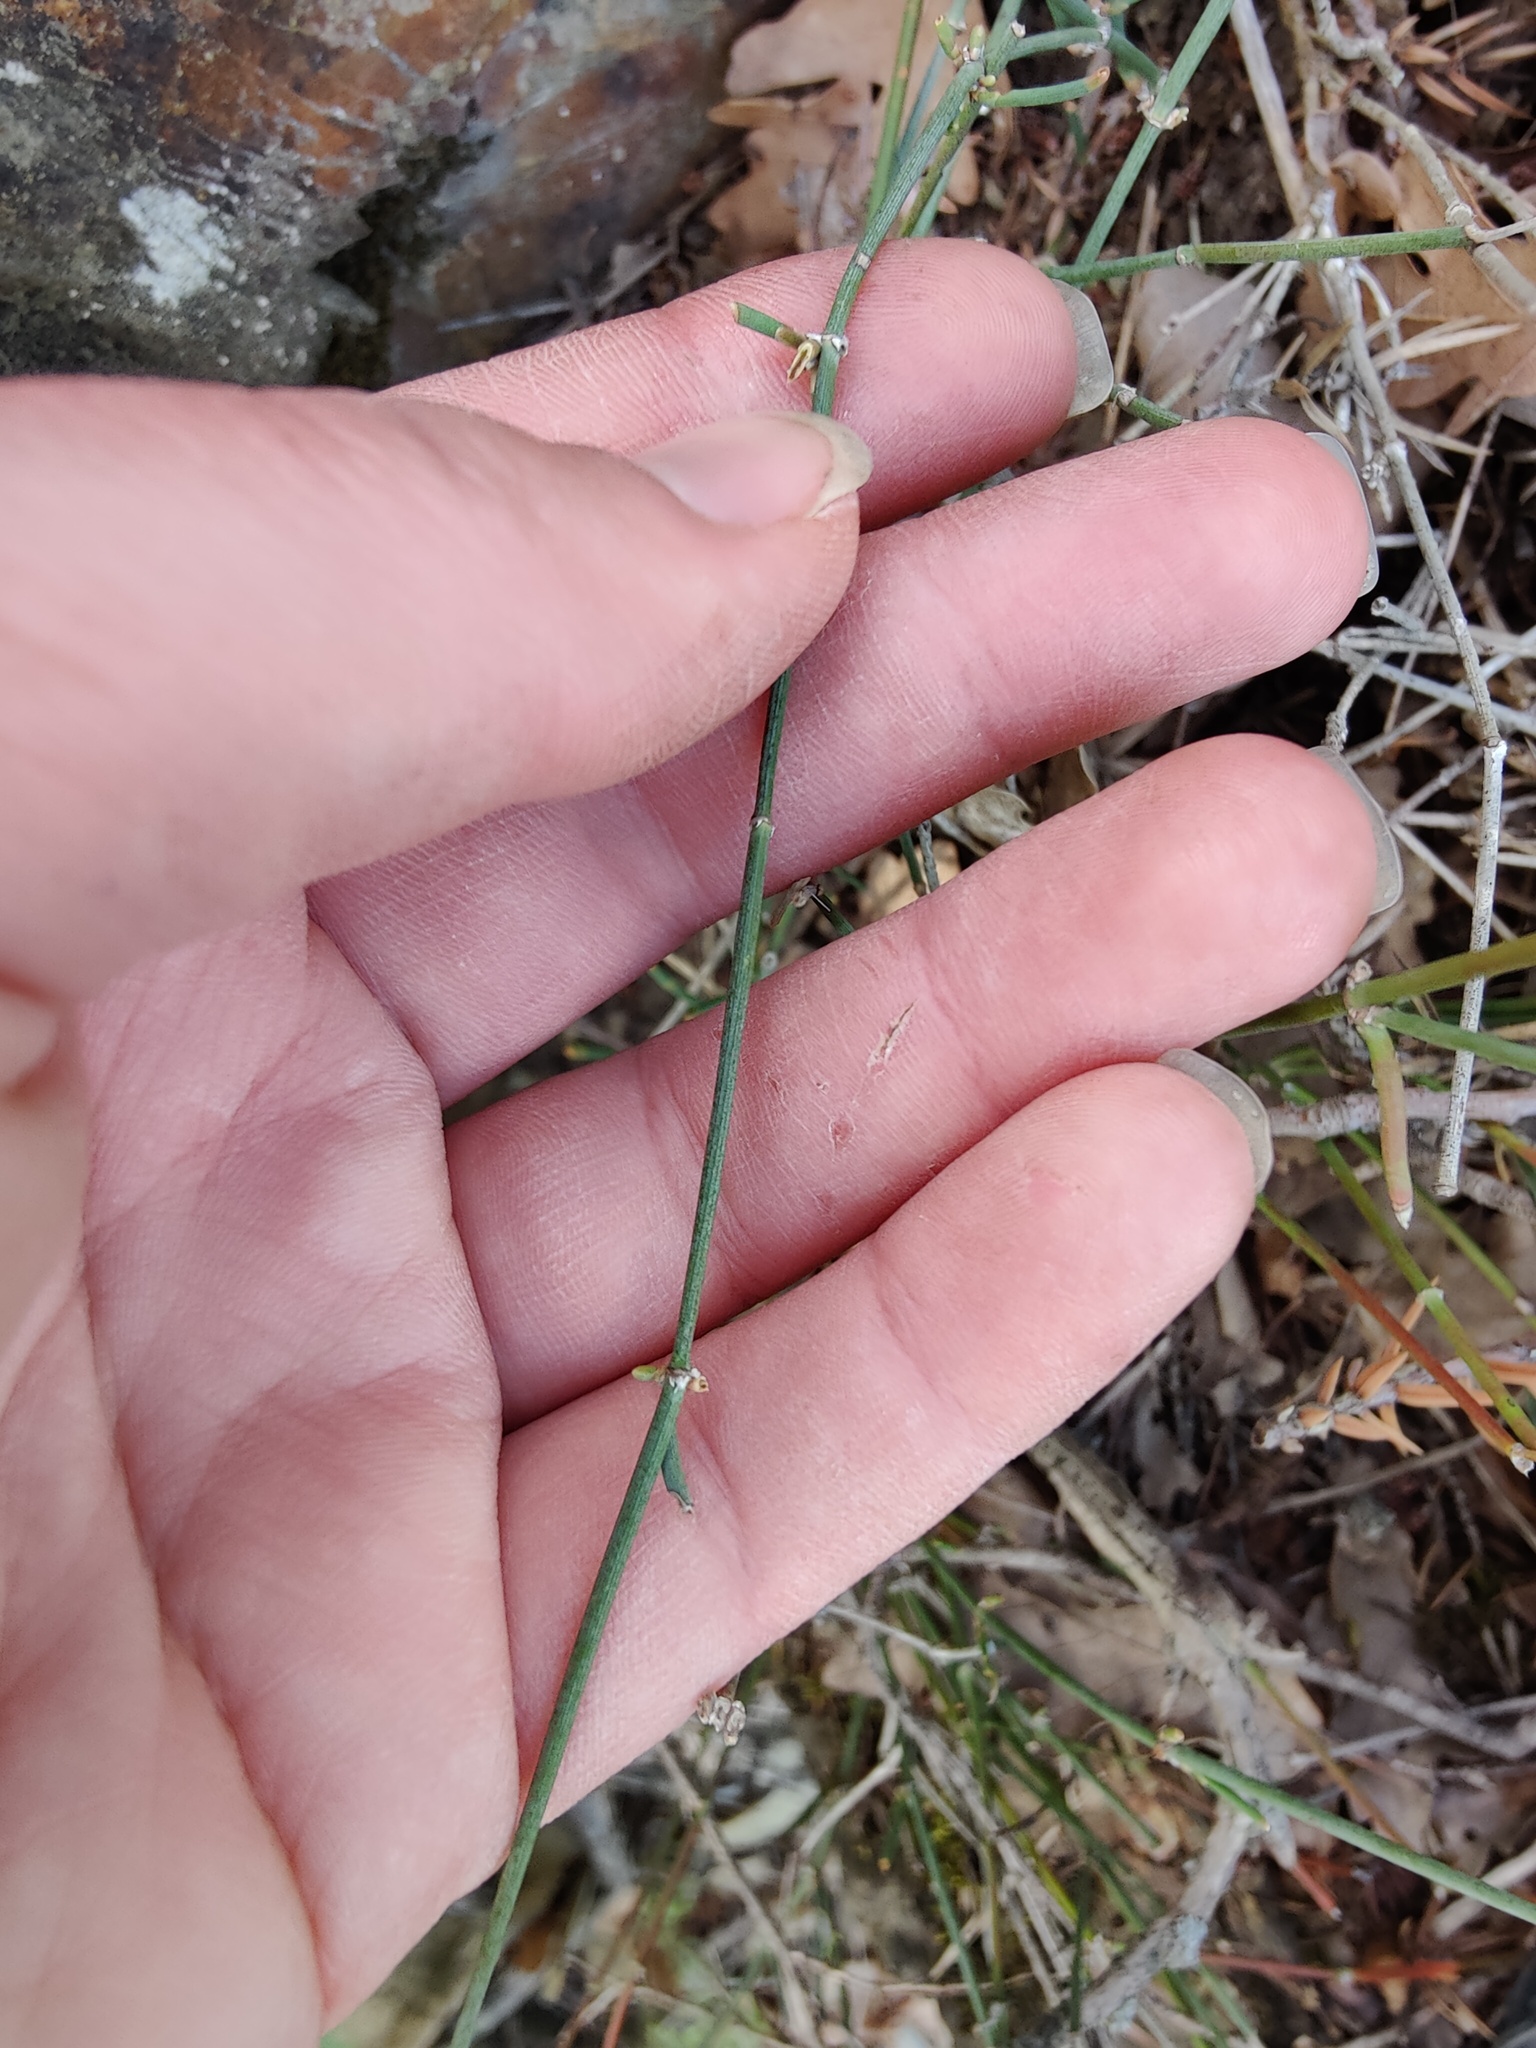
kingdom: Plantae
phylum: Tracheophyta
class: Gnetopsida
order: Ephedrales
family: Ephedraceae
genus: Ephedra
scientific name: Ephedra distachya
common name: Sea grape
